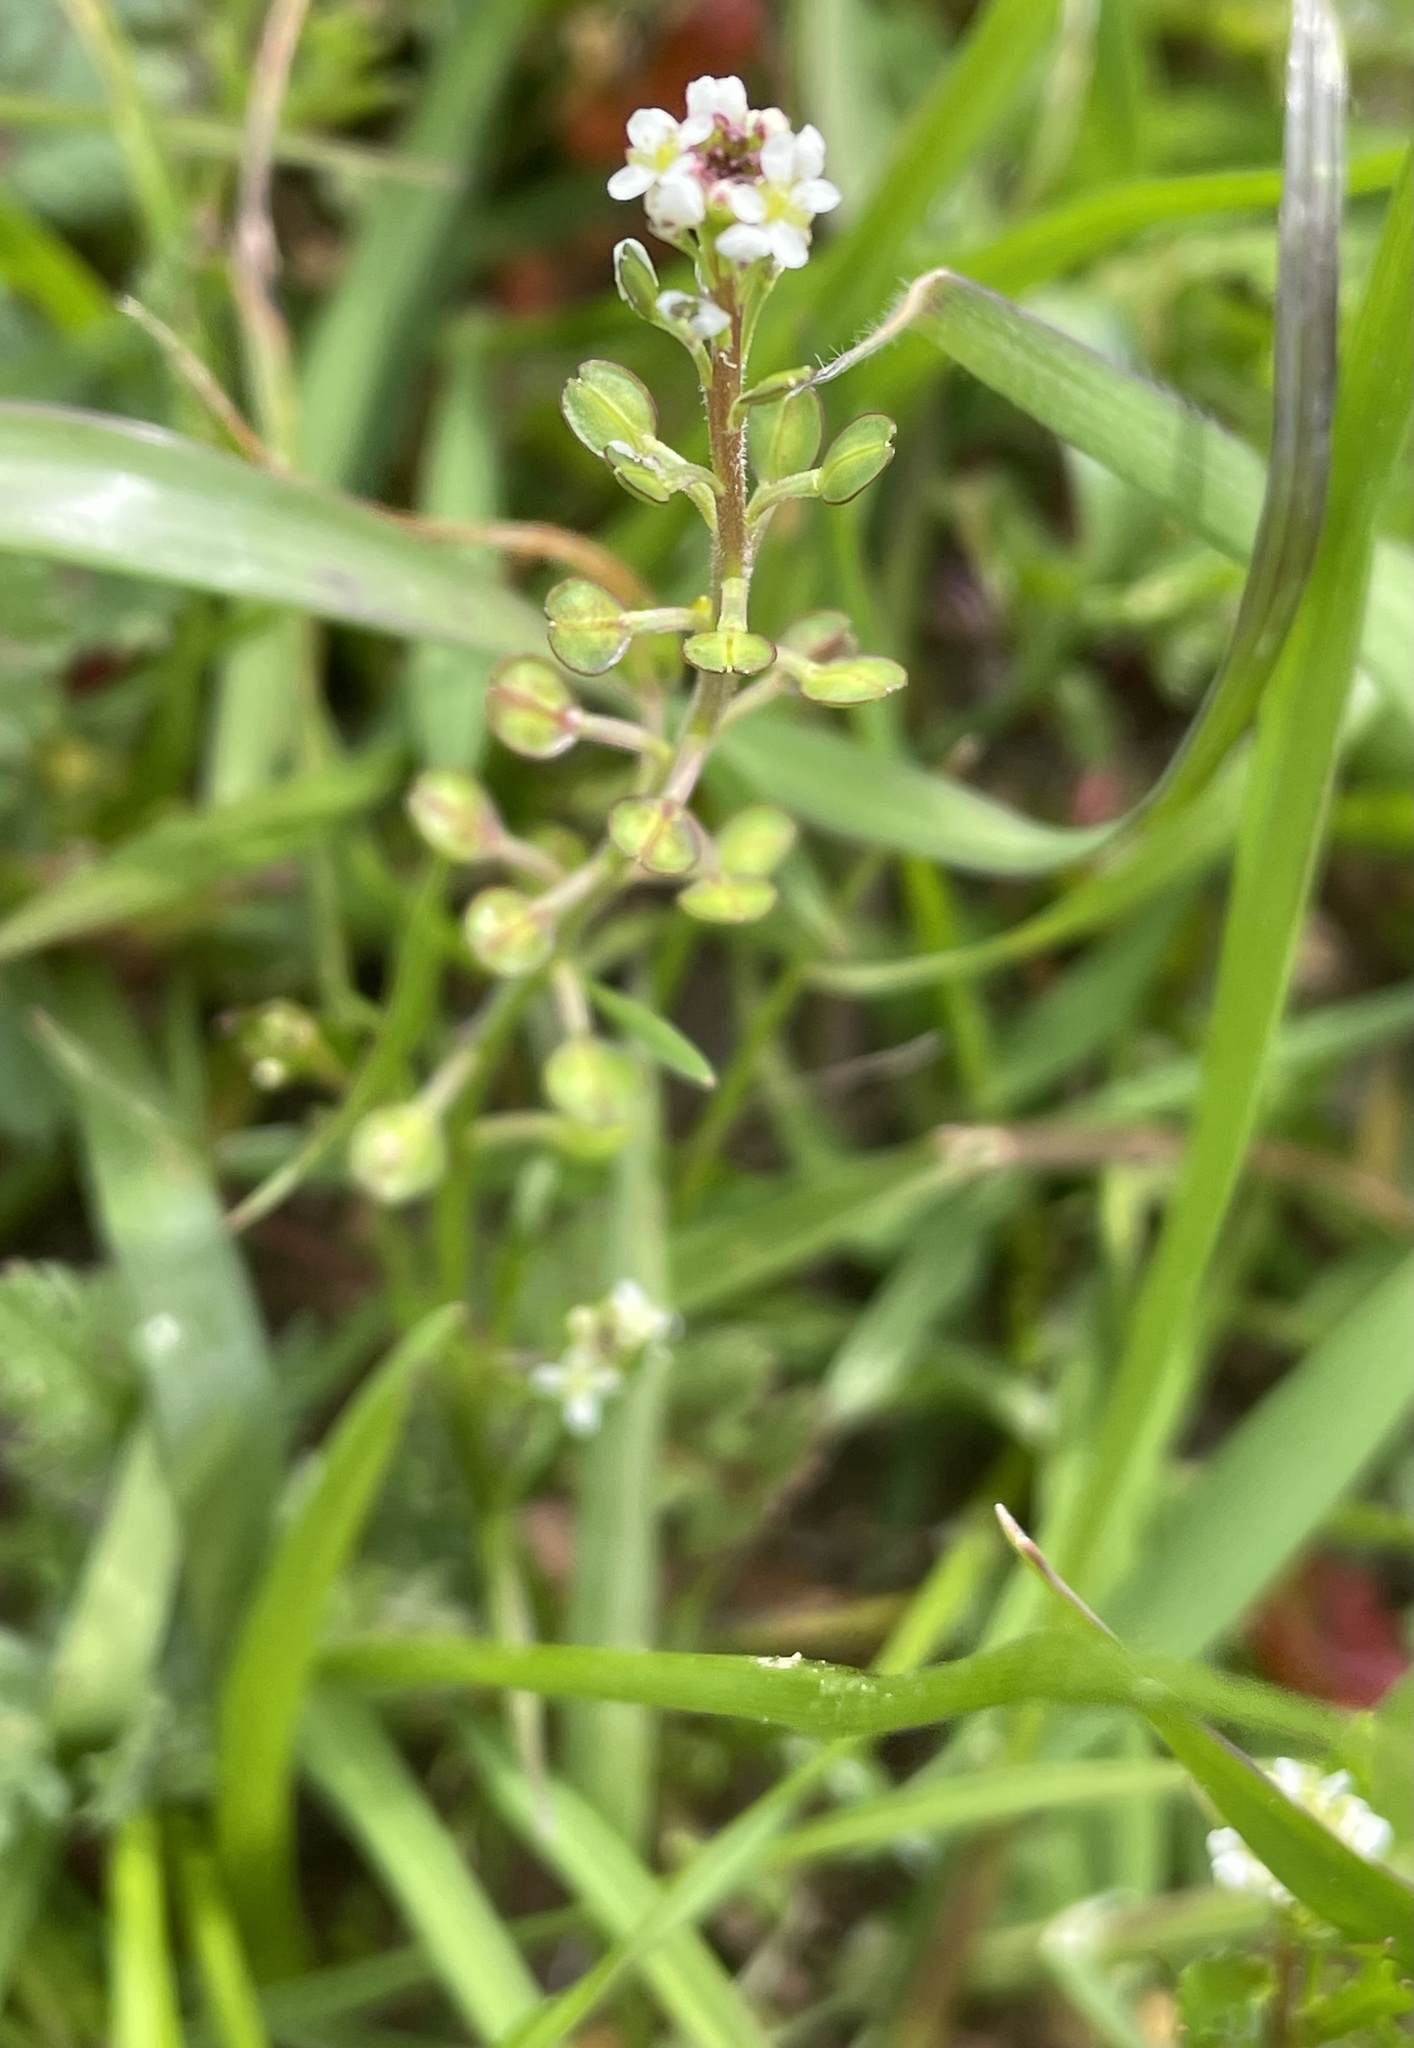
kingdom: Plantae
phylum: Tracheophyta
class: Magnoliopsida
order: Brassicales
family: Brassicaceae
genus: Capsella
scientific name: Capsella bursa-pastoris
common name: Shepherd's purse
